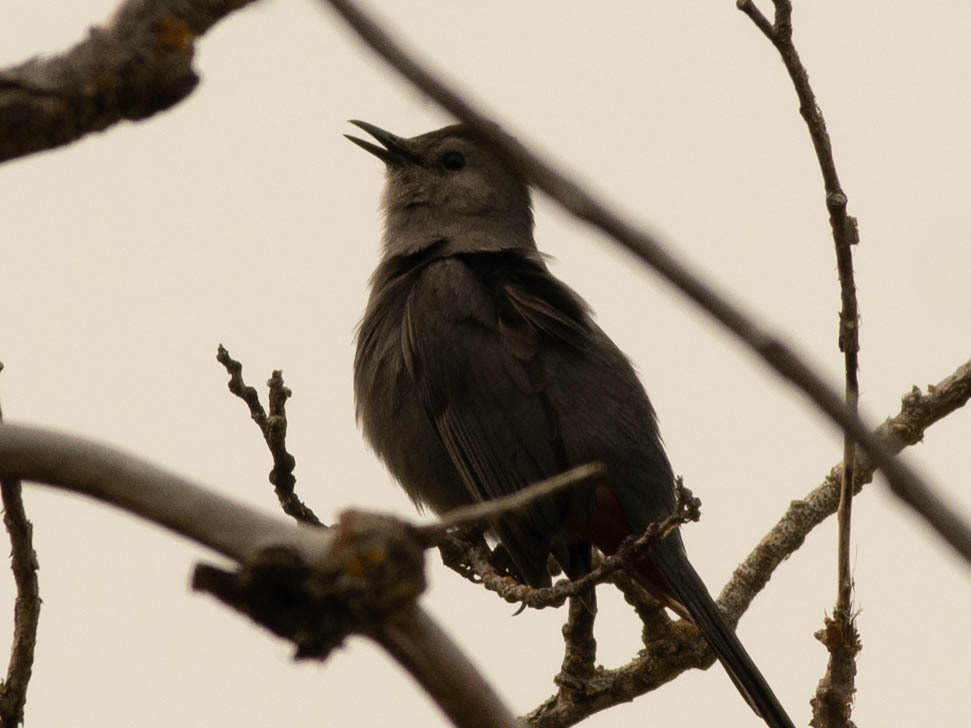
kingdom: Animalia
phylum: Chordata
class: Aves
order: Passeriformes
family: Mimidae
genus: Dumetella
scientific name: Dumetella carolinensis
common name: Gray catbird
